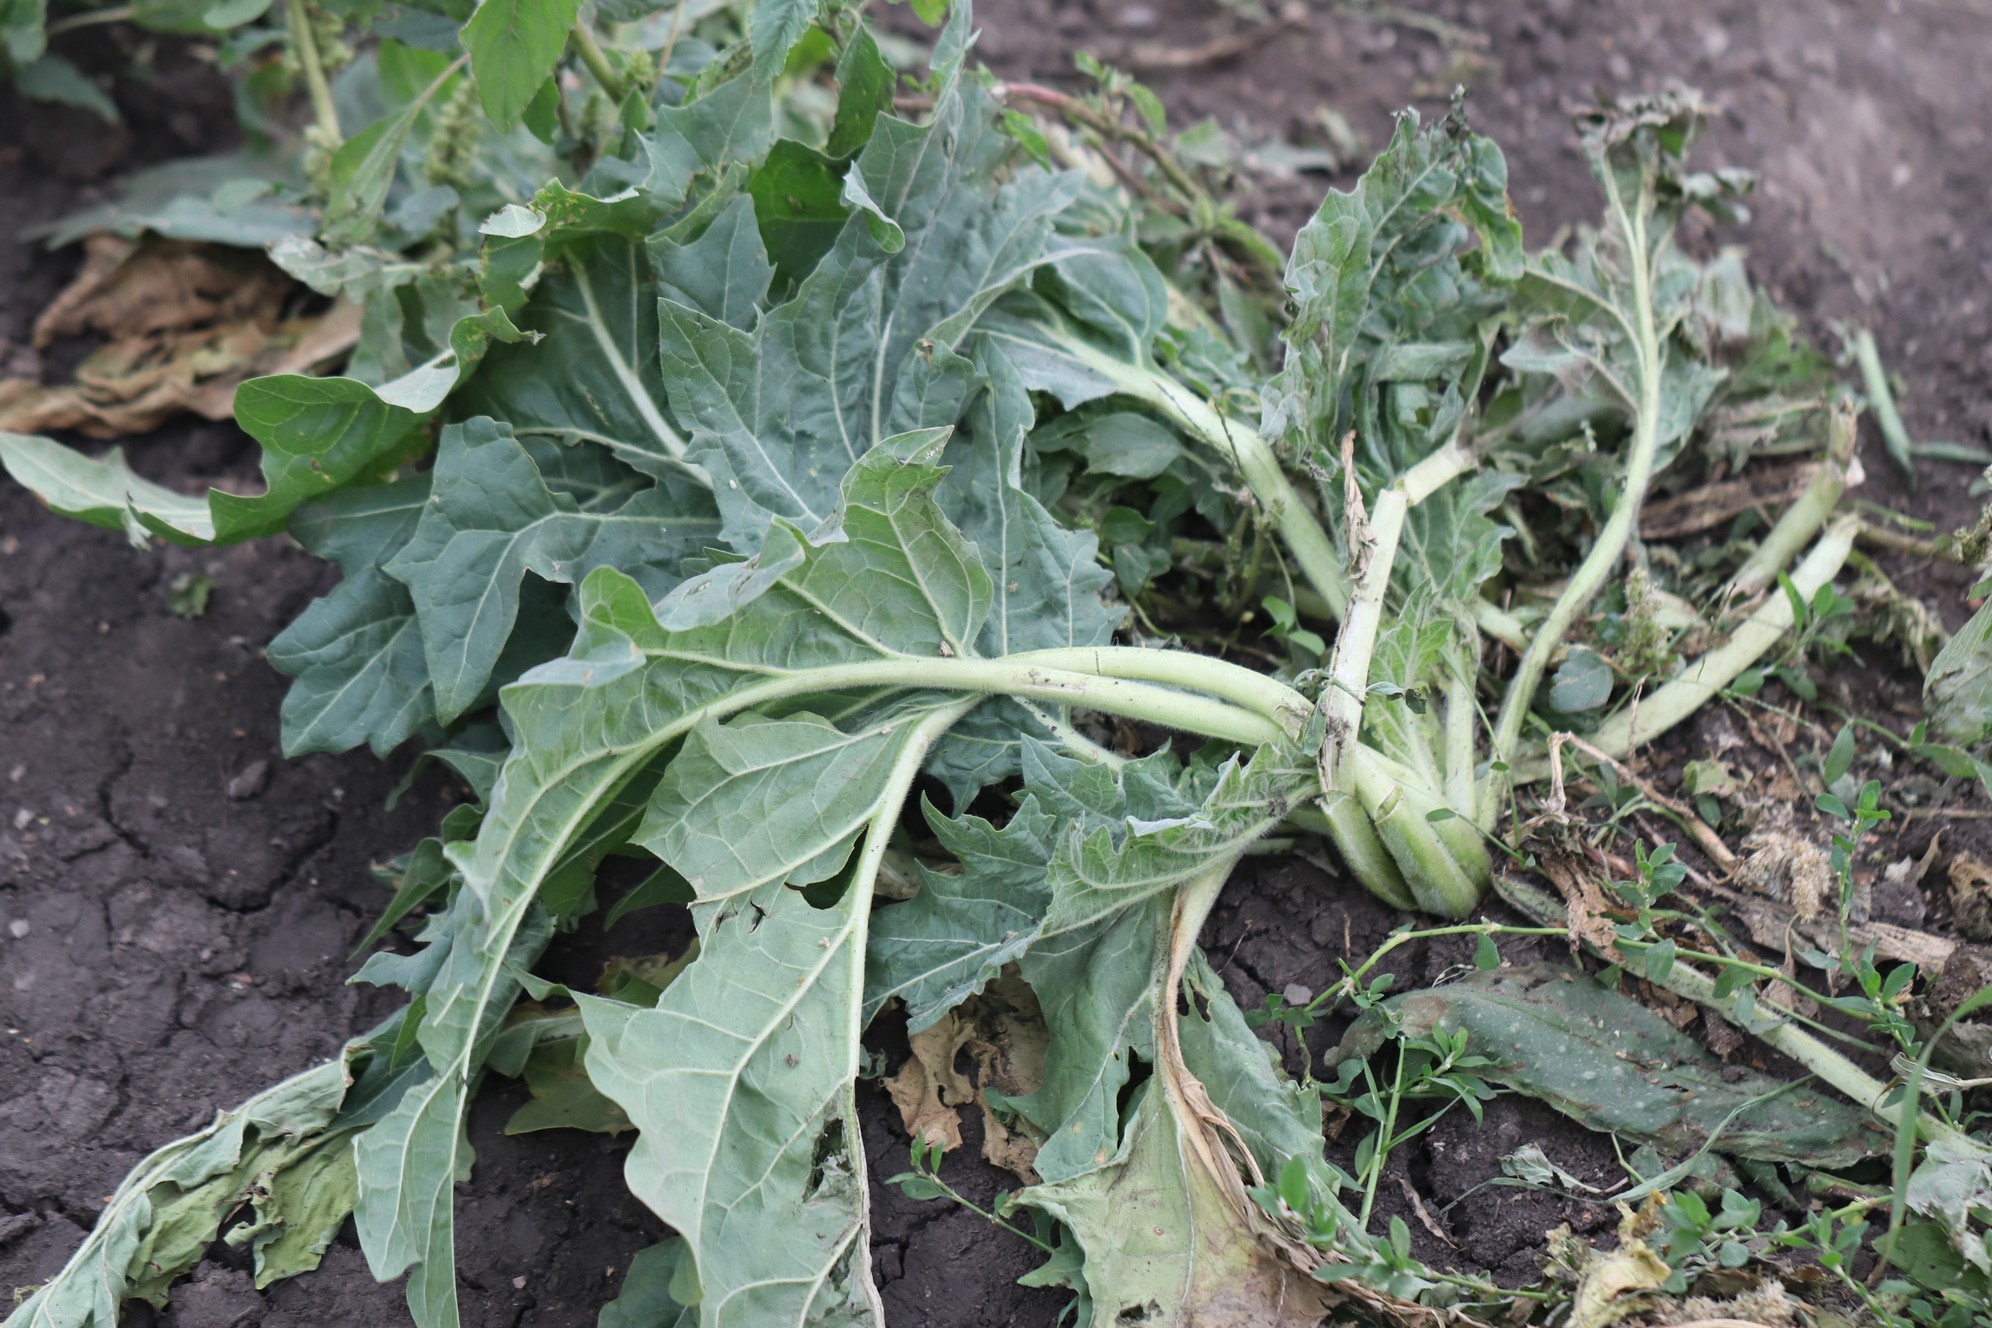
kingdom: Plantae
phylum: Tracheophyta
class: Magnoliopsida
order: Solanales
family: Solanaceae
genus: Hyoscyamus
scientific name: Hyoscyamus niger
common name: Henbane
